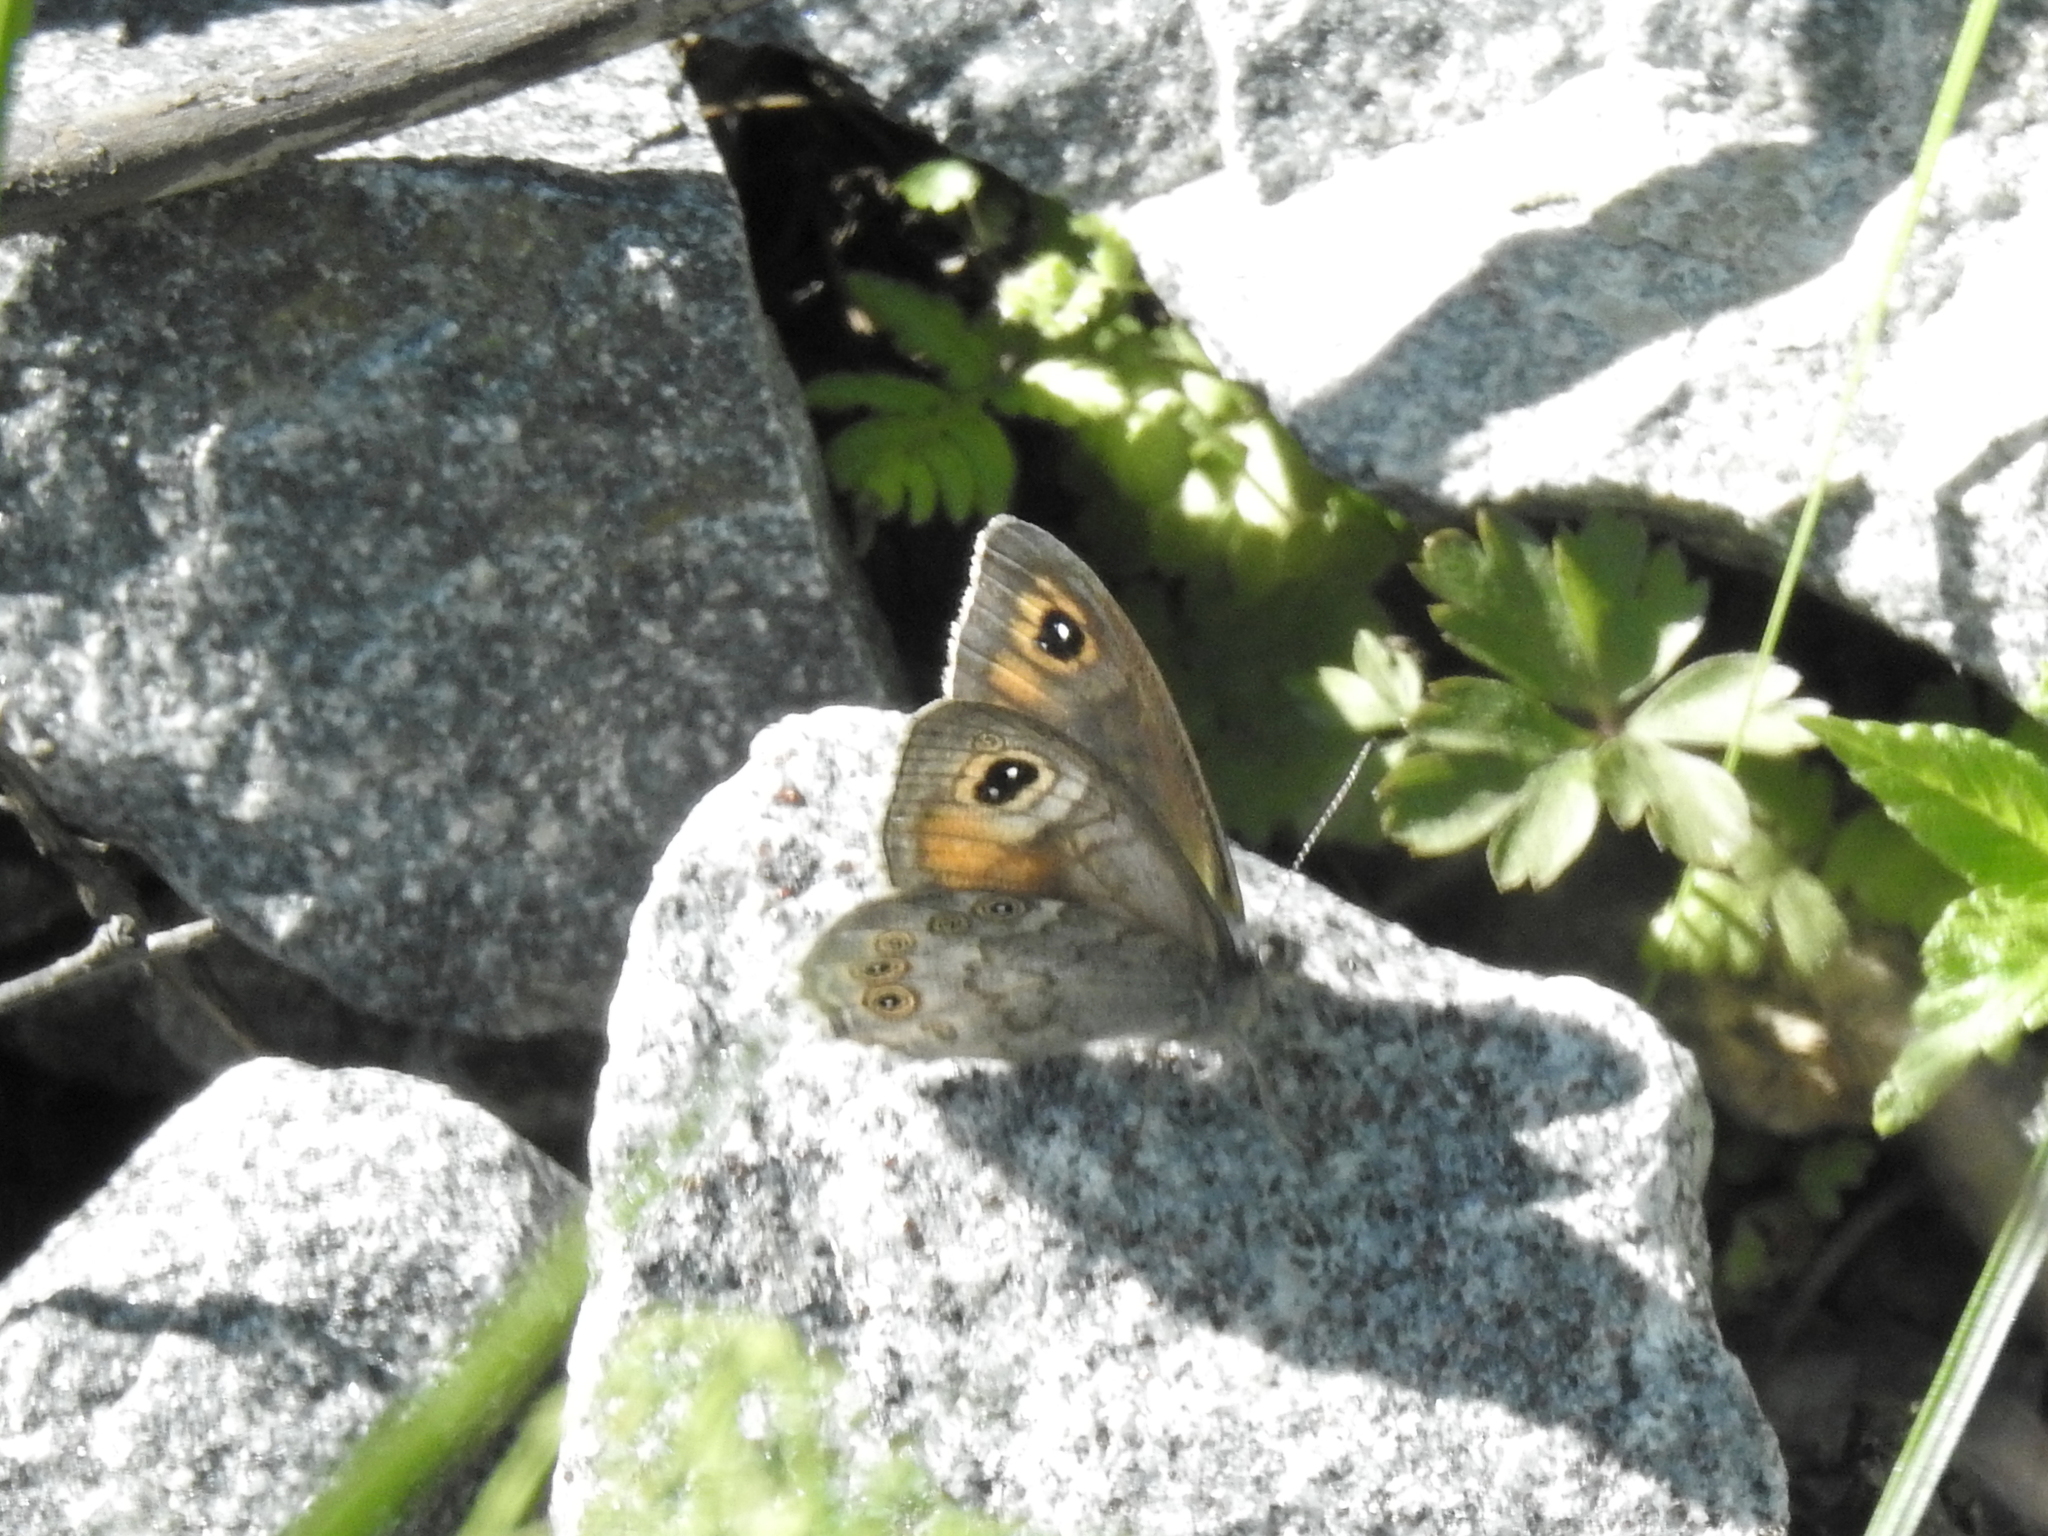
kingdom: Animalia
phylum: Arthropoda
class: Insecta
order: Lepidoptera
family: Nymphalidae
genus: Pararge
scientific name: Pararge Lasiommata maera
